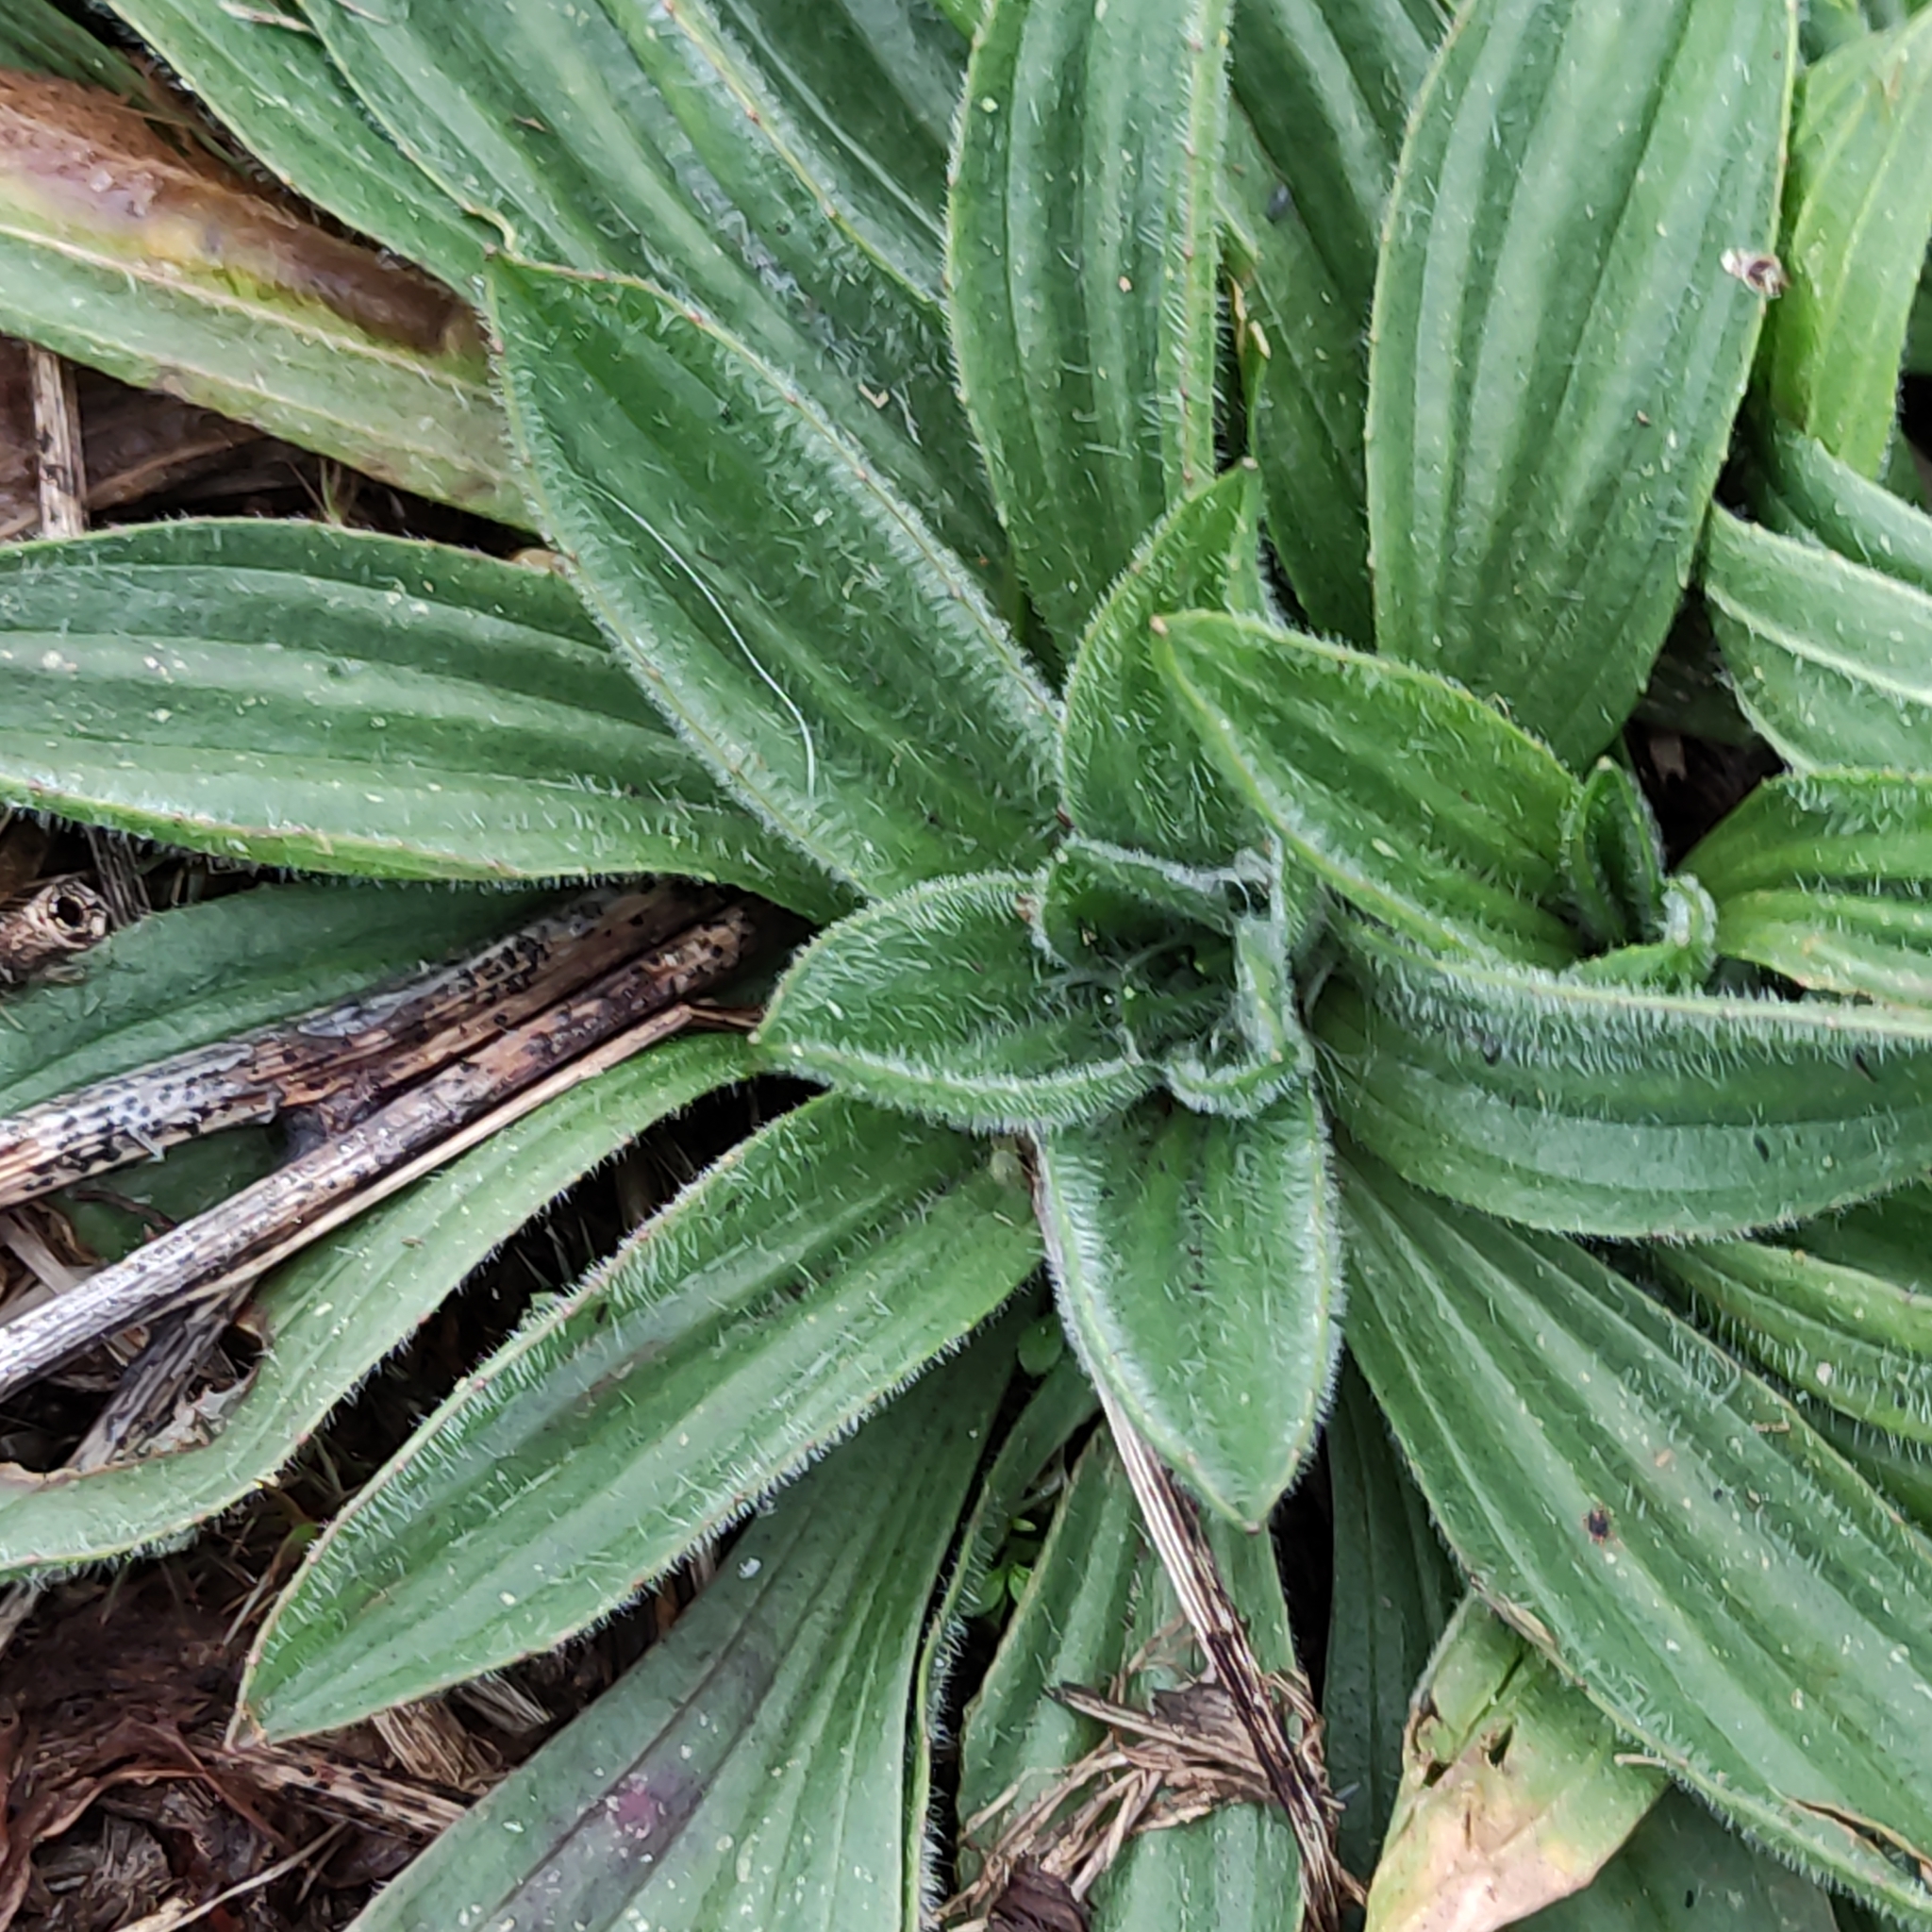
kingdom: Plantae
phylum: Tracheophyta
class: Magnoliopsida
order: Lamiales
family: Plantaginaceae
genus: Plantago
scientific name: Plantago lanceolata
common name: Ribwort plantain
